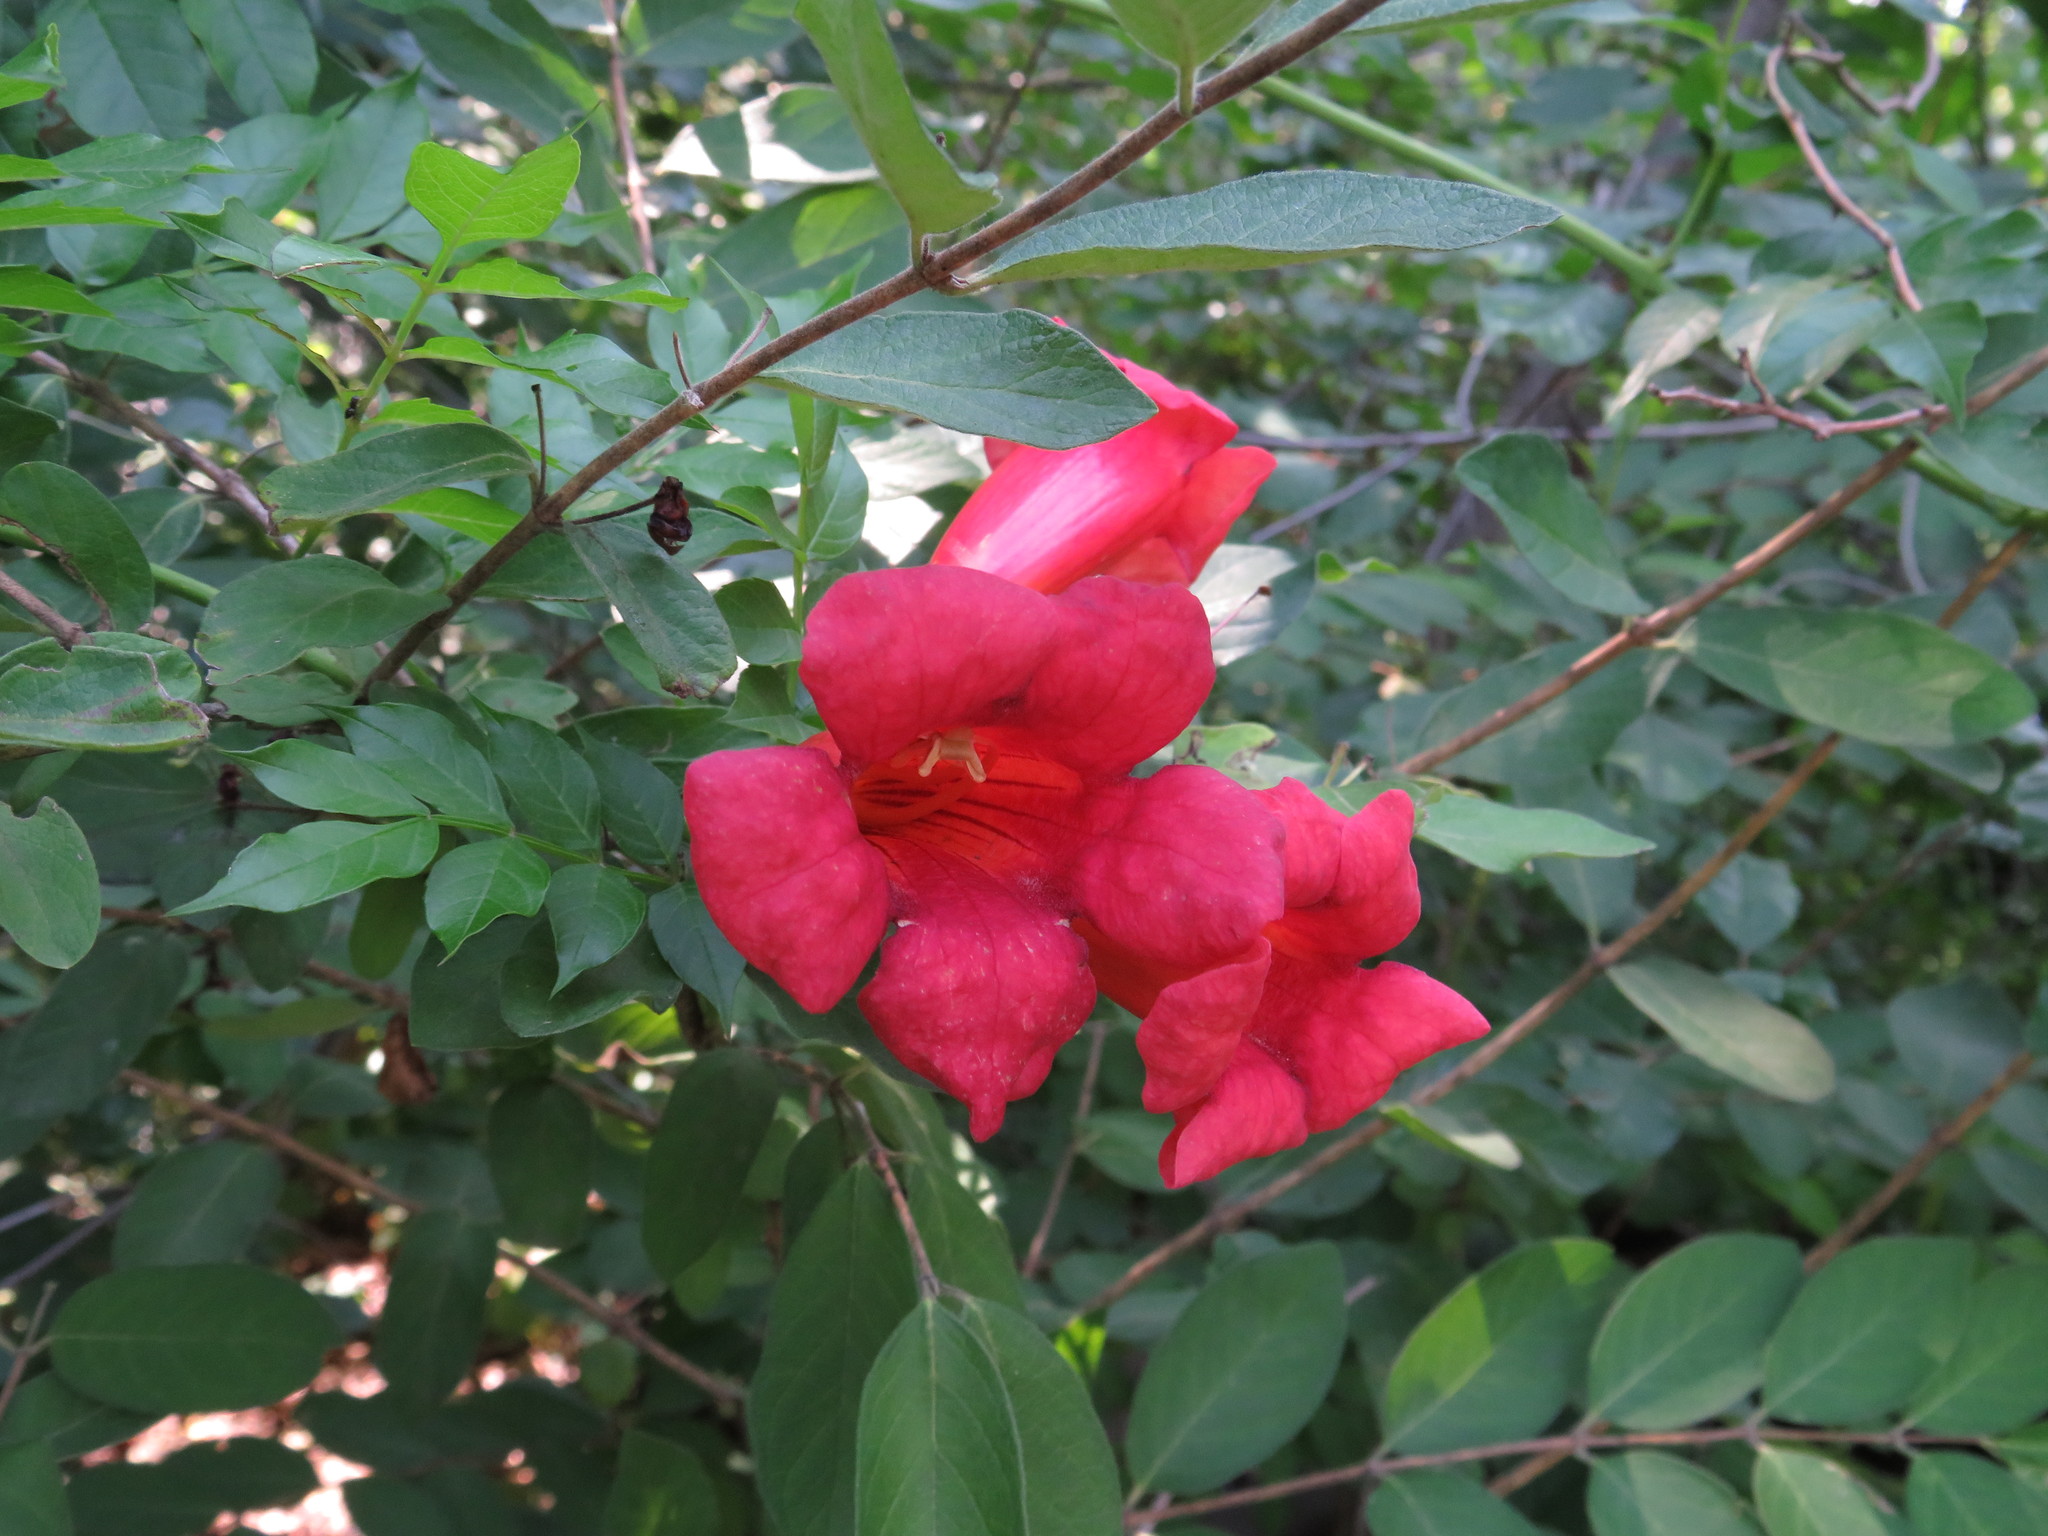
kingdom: Plantae
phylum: Tracheophyta
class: Magnoliopsida
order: Lamiales
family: Bignoniaceae
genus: Campsis
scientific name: Campsis radicans
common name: Trumpet-creeper
